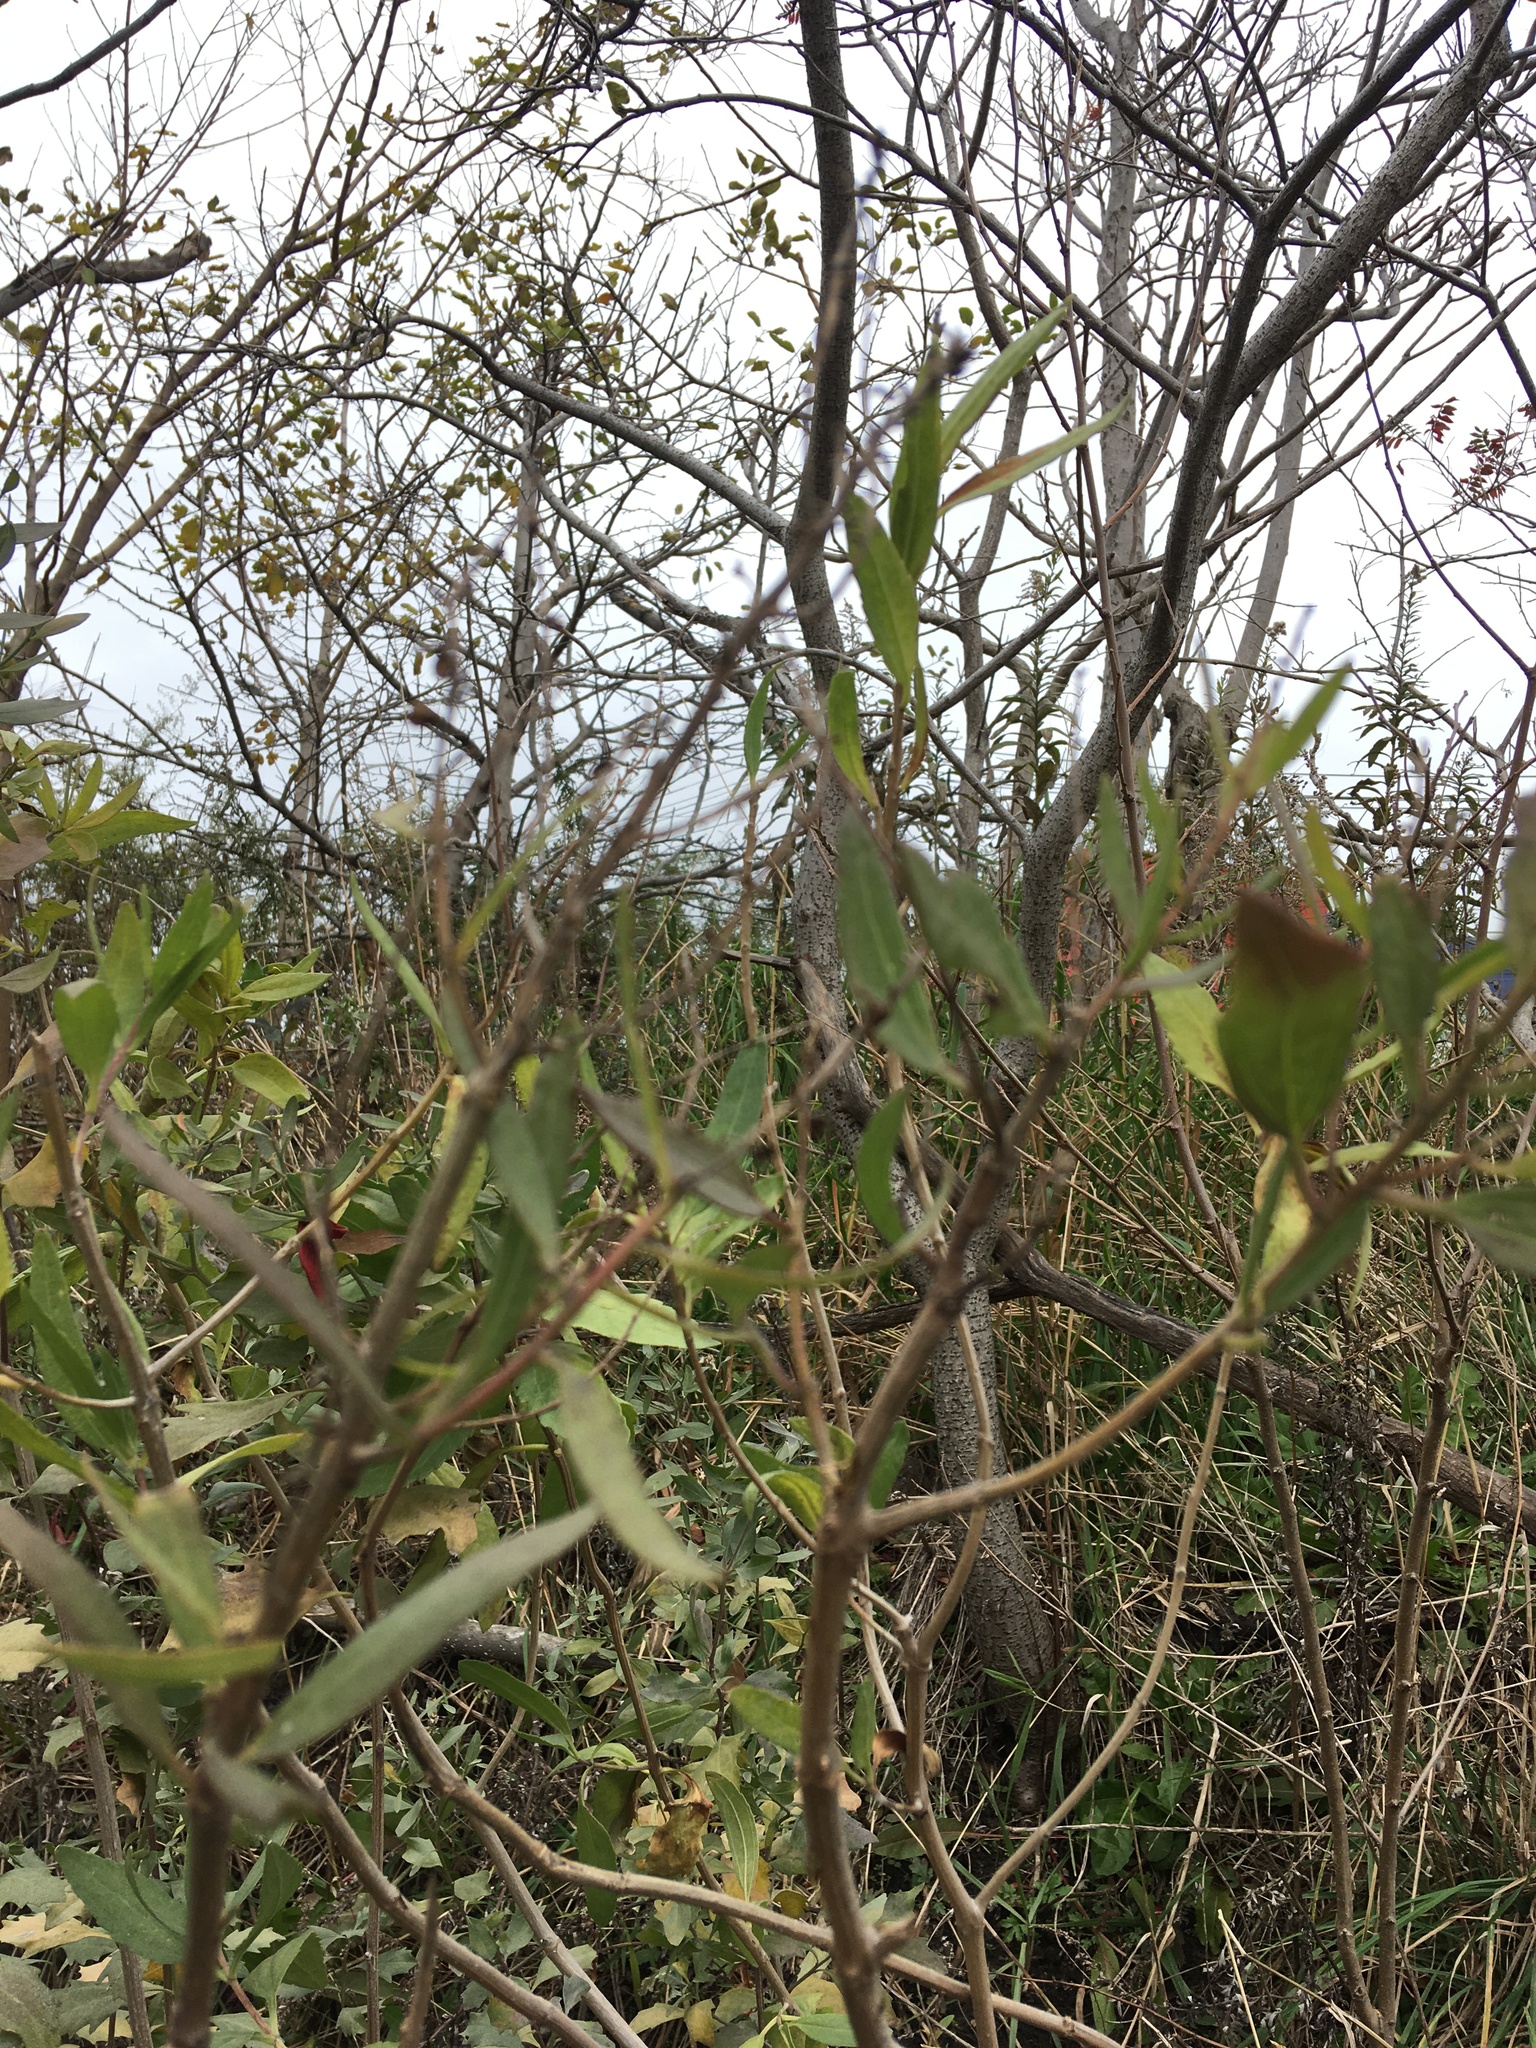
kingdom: Plantae
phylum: Tracheophyta
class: Magnoliopsida
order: Asterales
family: Asteraceae
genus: Iva
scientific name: Iva frutescens
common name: Big-leaved marsh-elder
